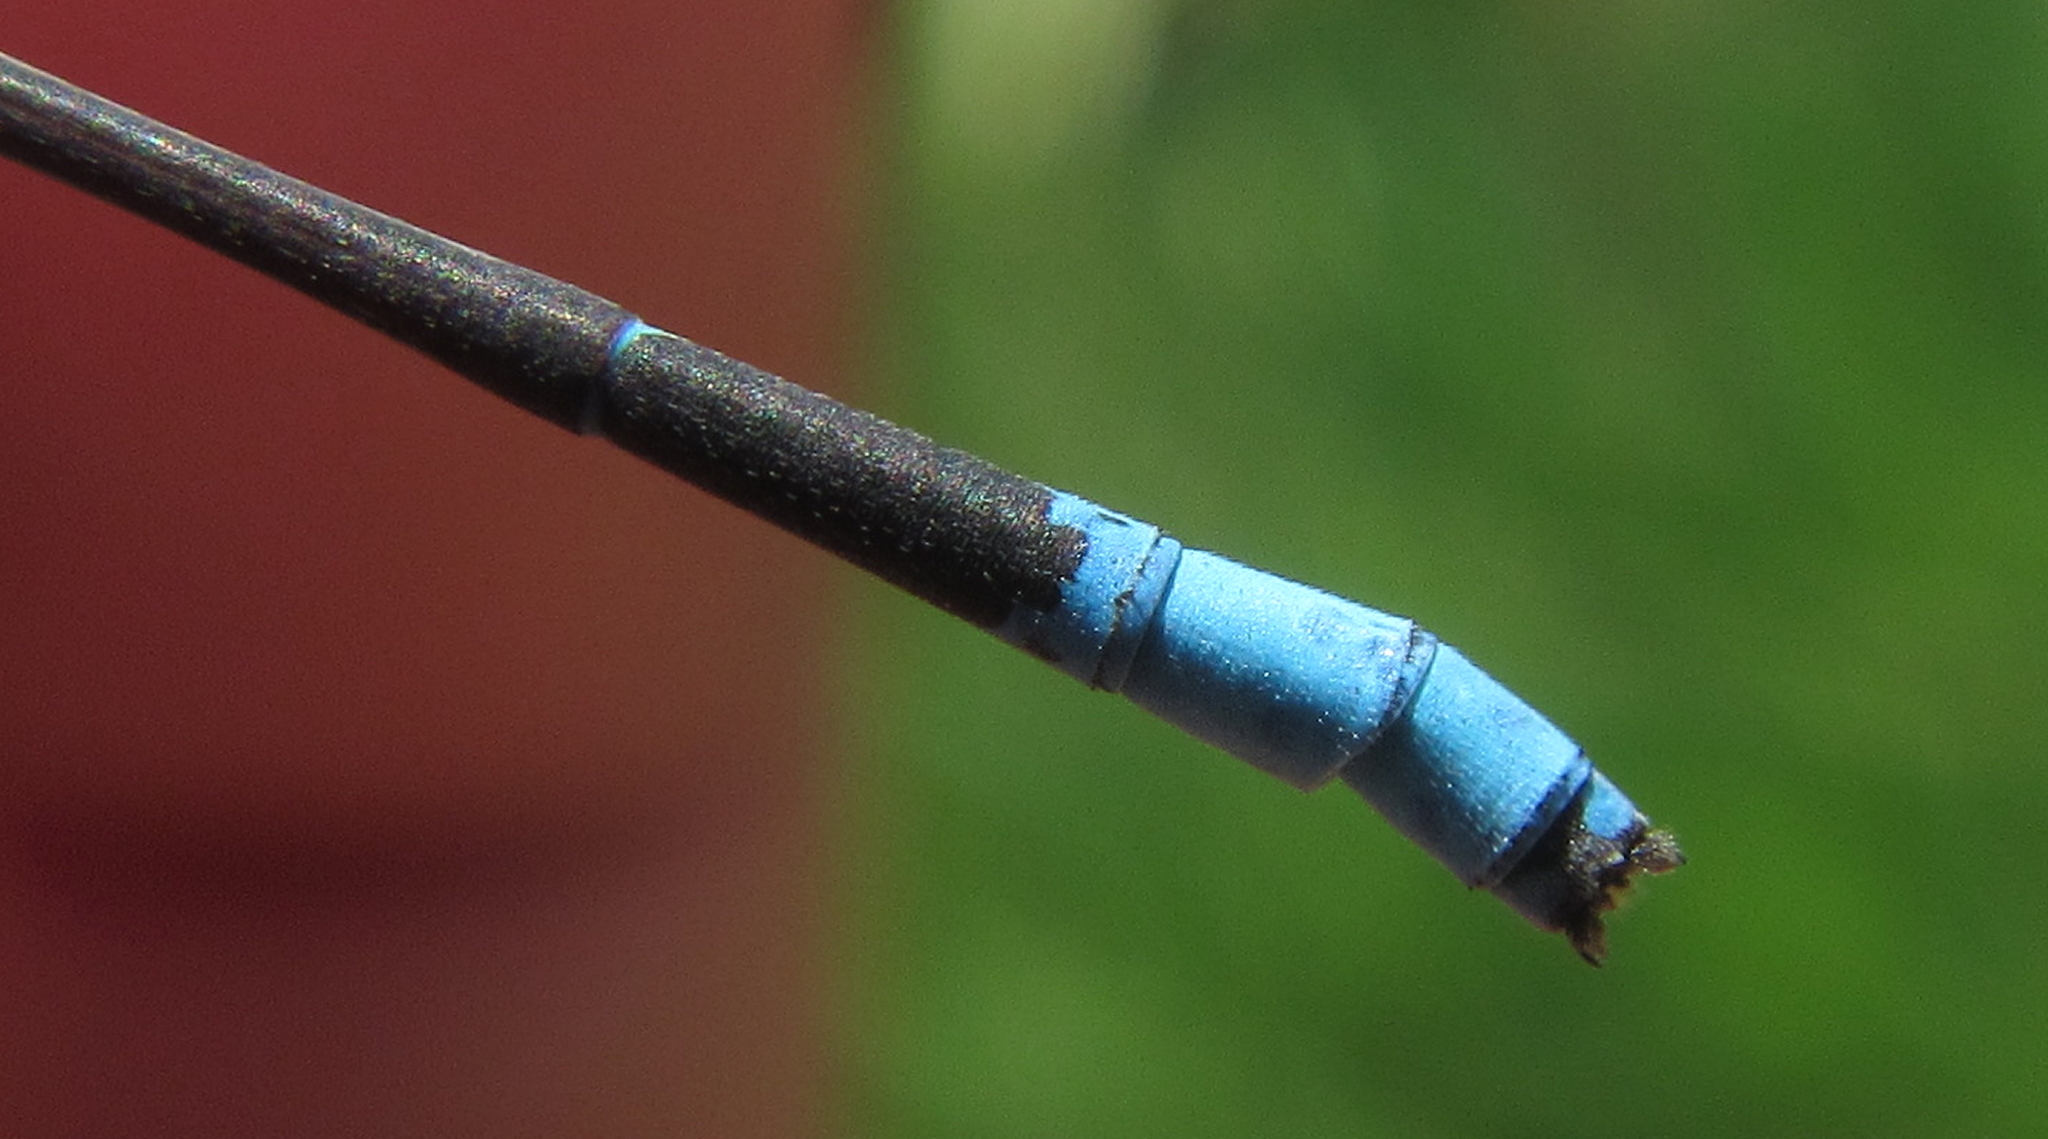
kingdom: Animalia
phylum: Arthropoda
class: Insecta
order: Odonata
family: Coenagrionidae
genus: Africallagma
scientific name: Africallagma fractum
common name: Slender bluet
